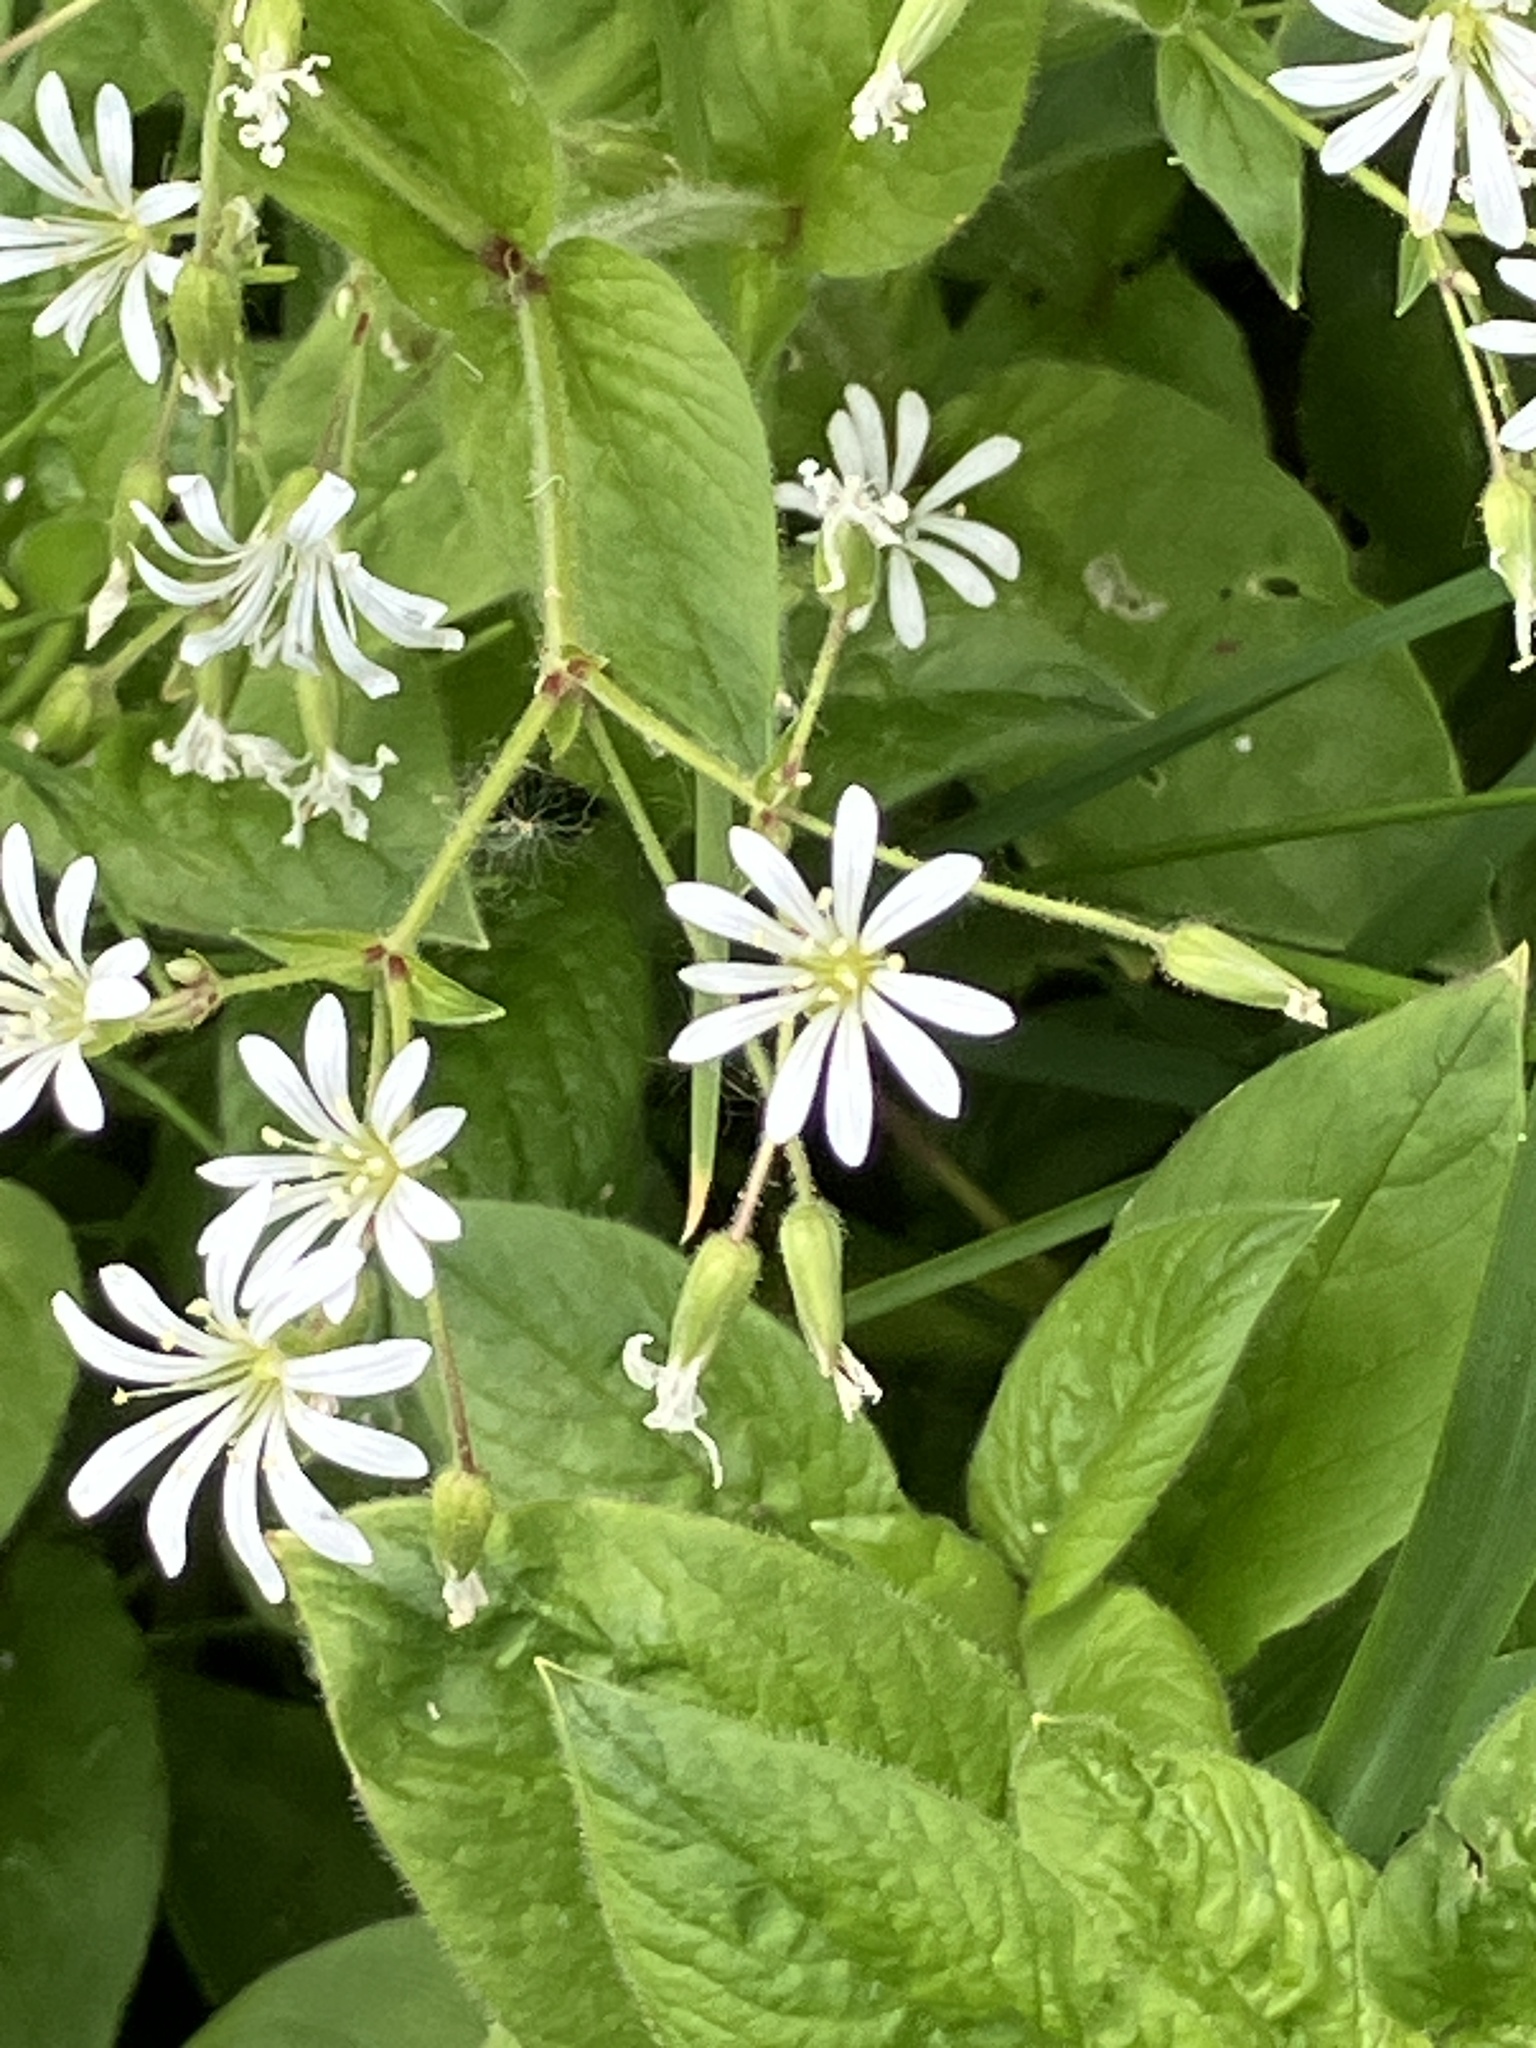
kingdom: Plantae
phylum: Tracheophyta
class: Magnoliopsida
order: Caryophyllales
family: Caryophyllaceae
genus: Stellaria
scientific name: Stellaria nemorum
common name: Wood stitchwort
